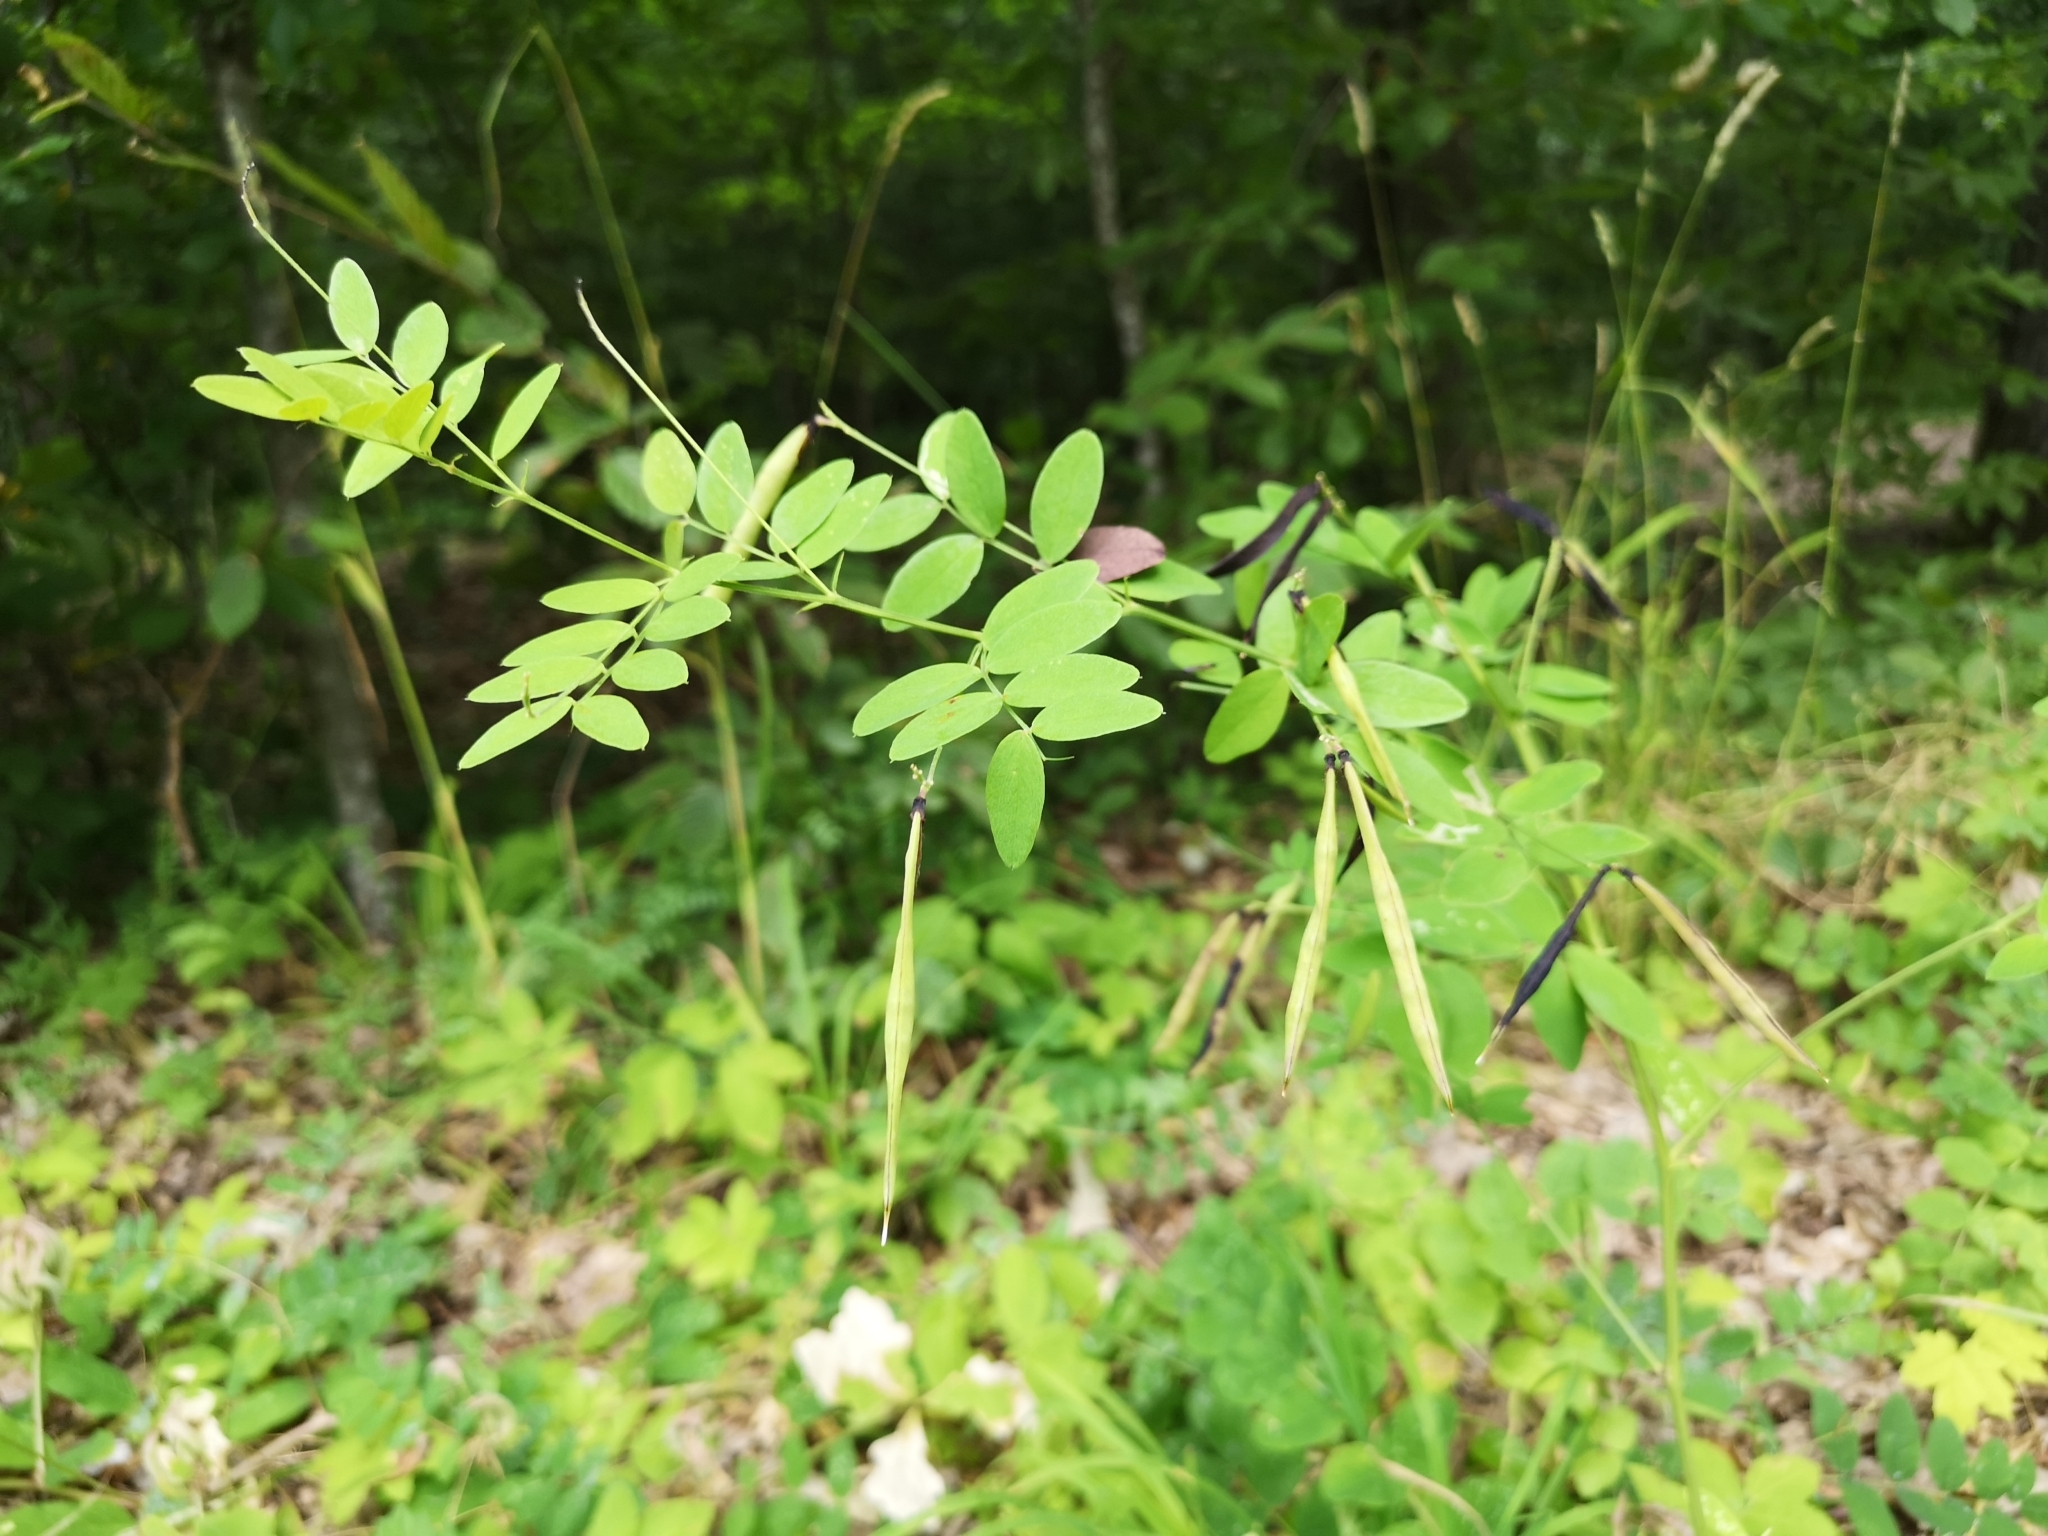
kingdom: Plantae
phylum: Tracheophyta
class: Magnoliopsida
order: Fabales
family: Fabaceae
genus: Lathyrus
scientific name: Lathyrus niger
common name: Black pea
